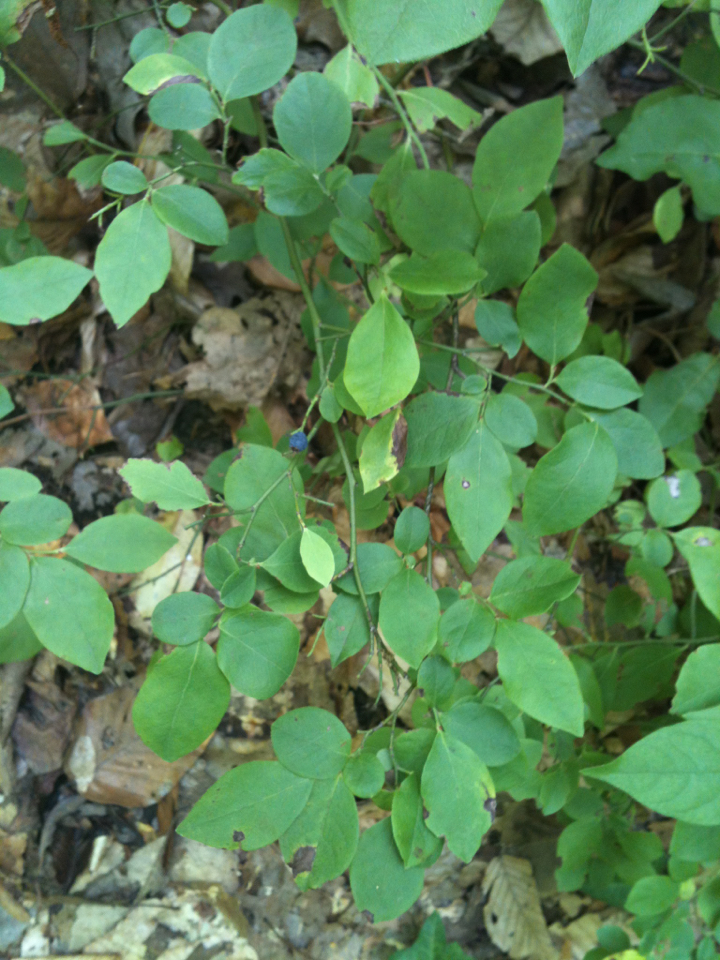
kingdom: Plantae
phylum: Tracheophyta
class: Magnoliopsida
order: Ericales
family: Ericaceae
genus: Vaccinium
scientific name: Vaccinium pallidum
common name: Blue ridge blueberry
